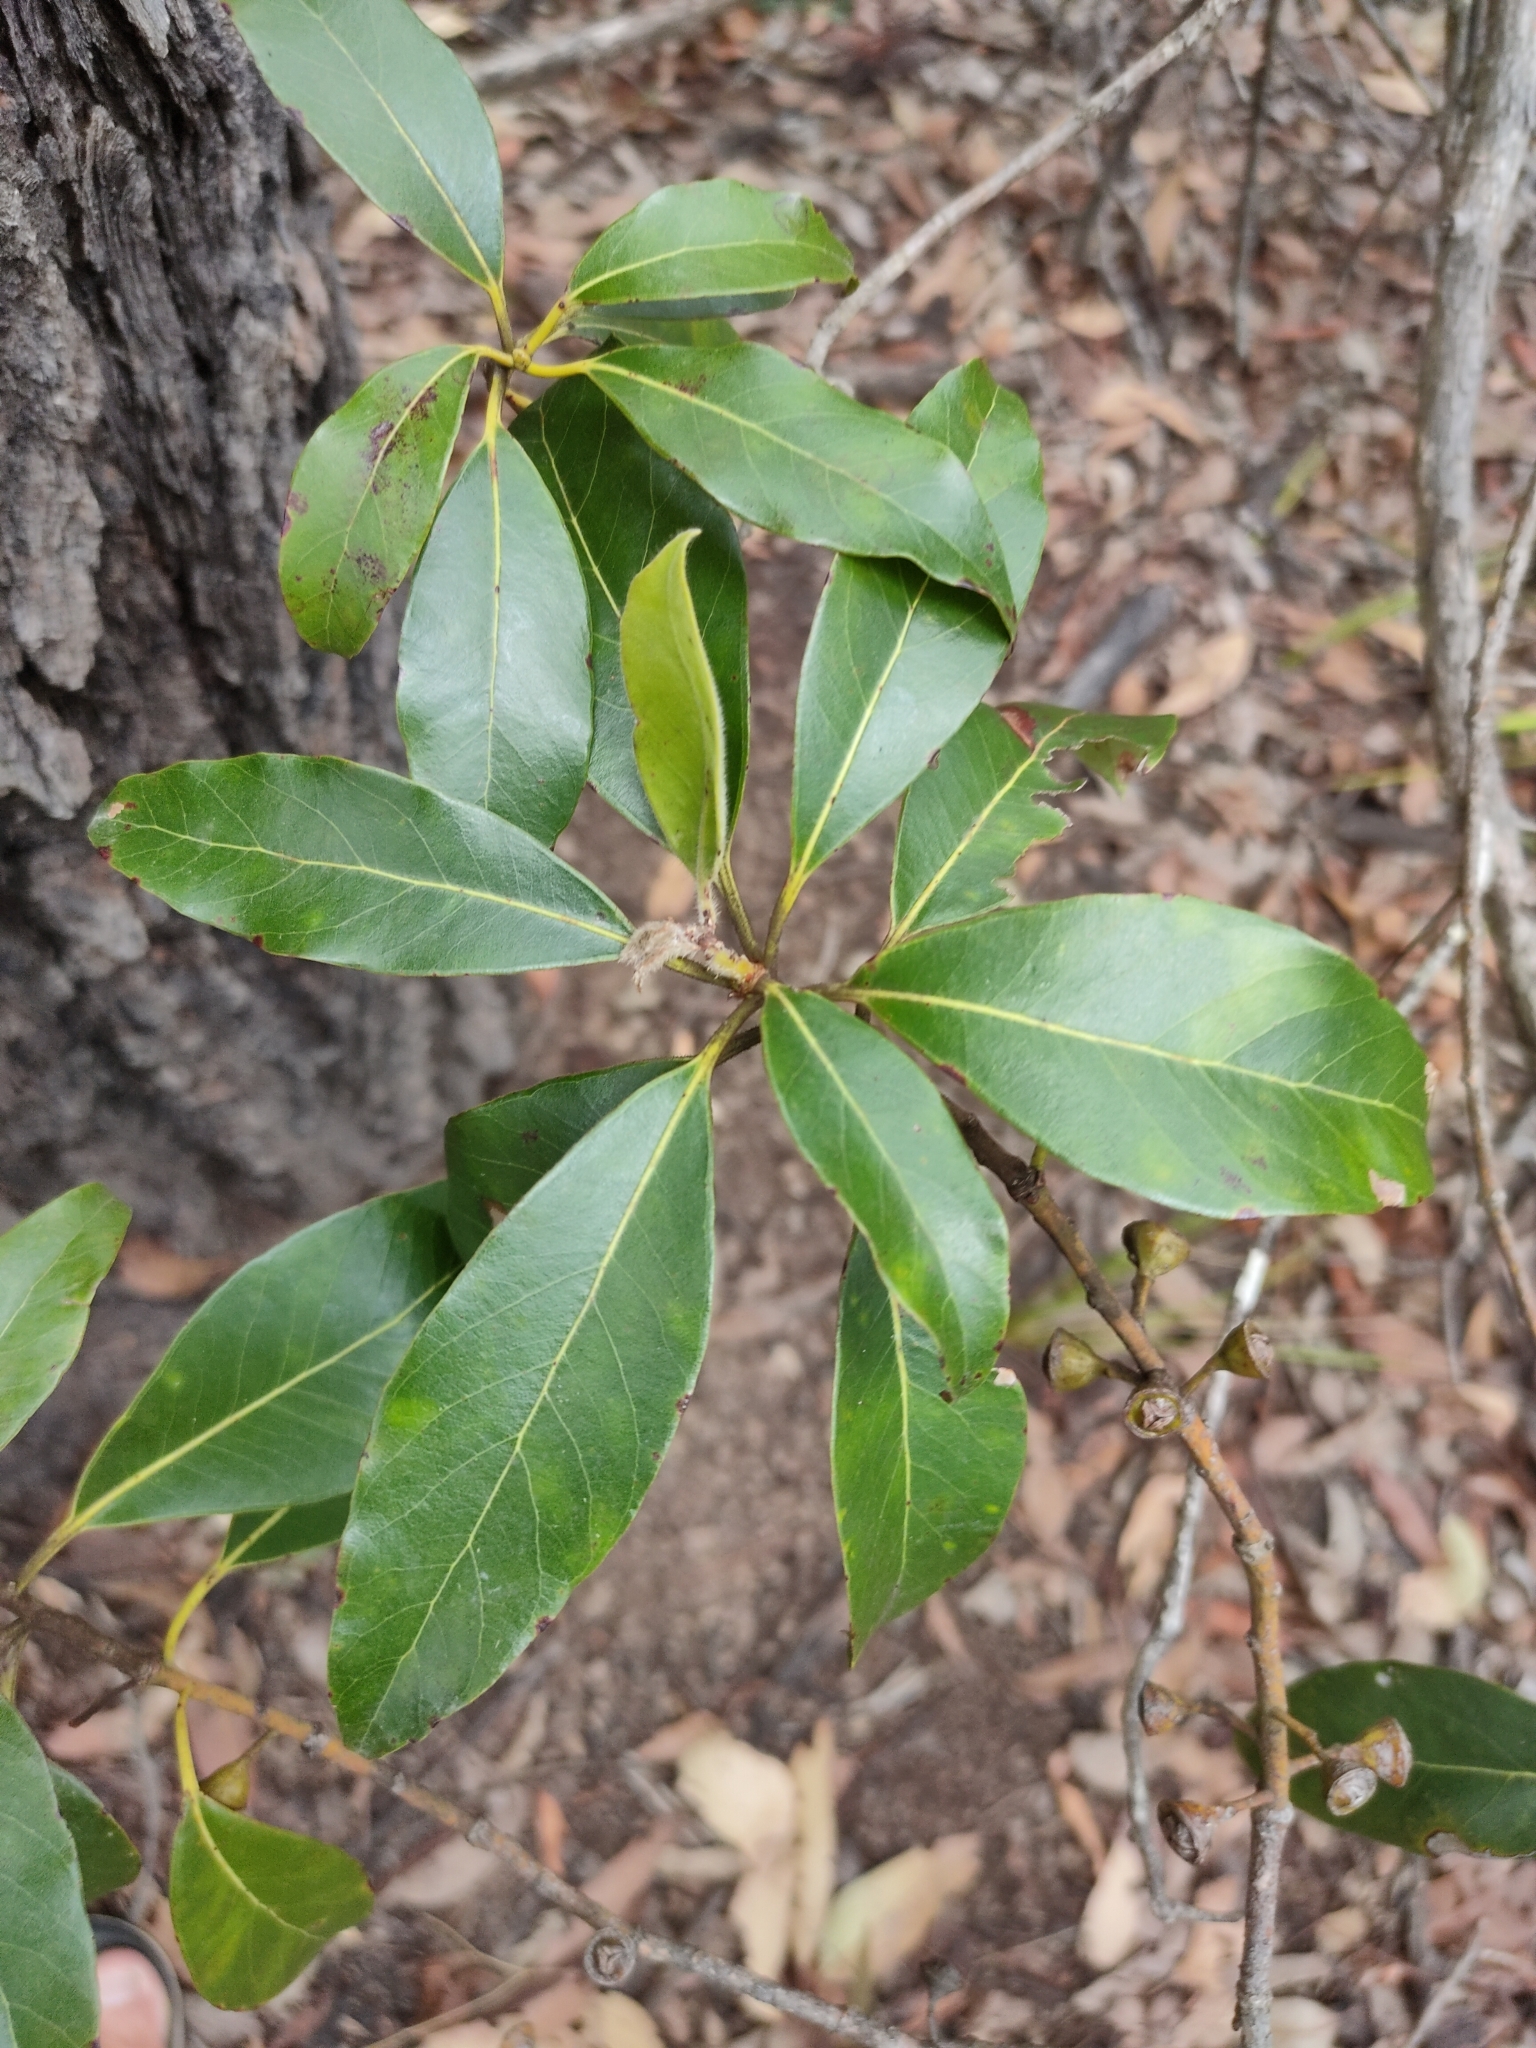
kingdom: Plantae
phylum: Tracheophyta
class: Magnoliopsida
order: Myrtales
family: Myrtaceae
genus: Lophostemon
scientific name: Lophostemon confertus
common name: Brisbane box
